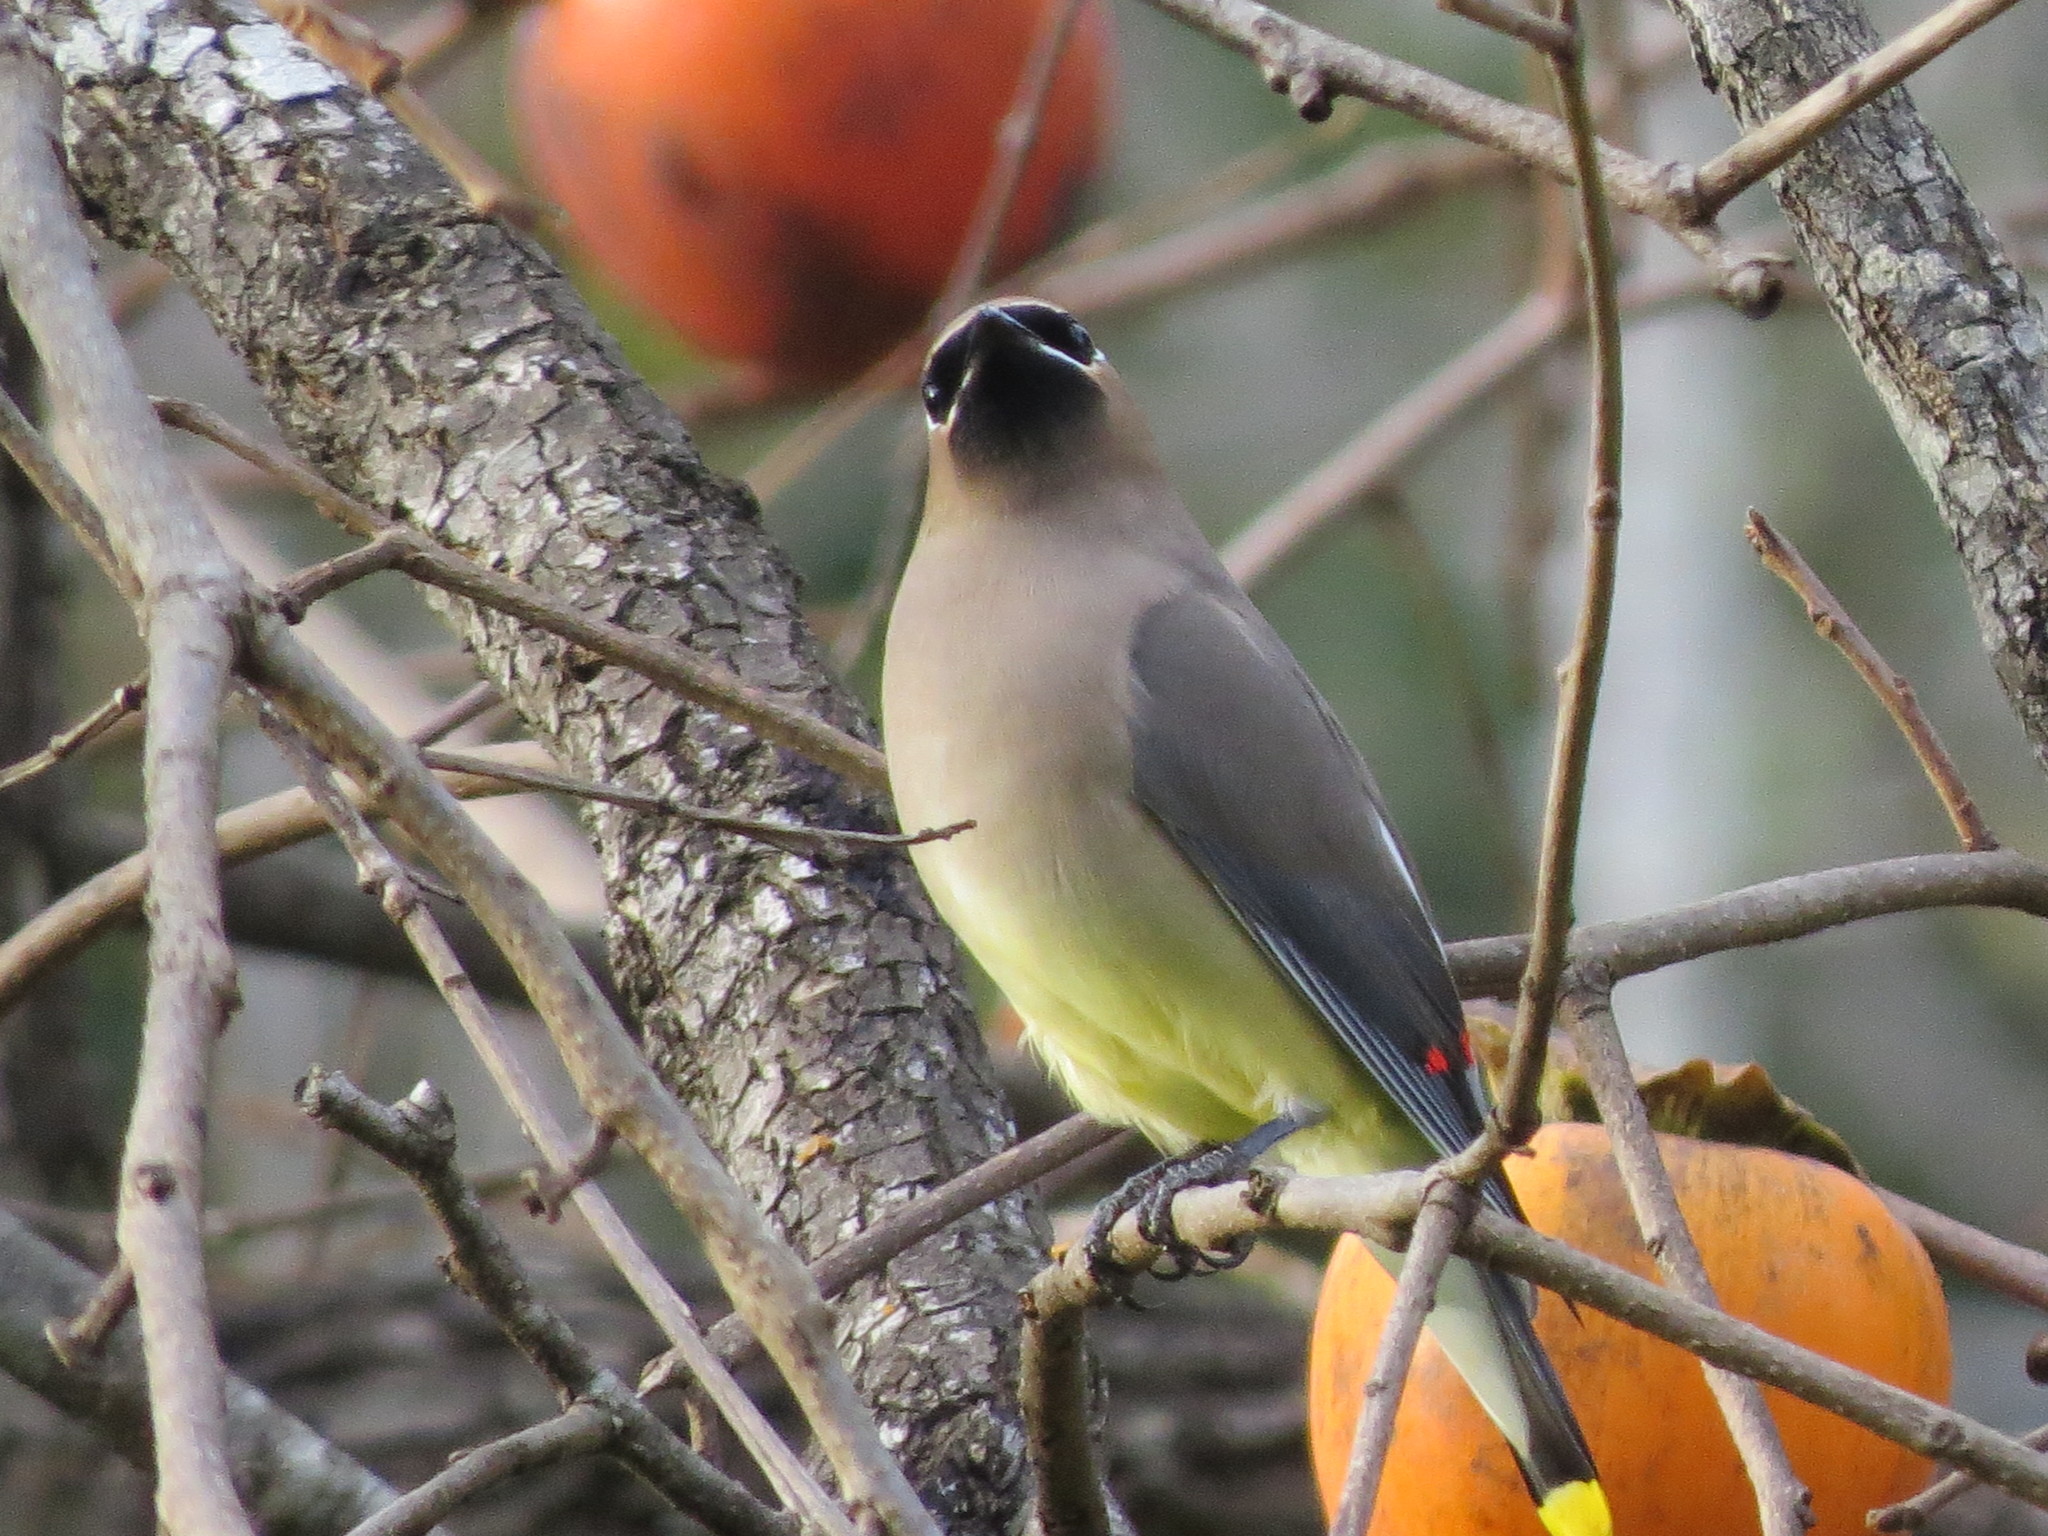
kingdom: Animalia
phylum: Chordata
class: Aves
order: Passeriformes
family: Bombycillidae
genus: Bombycilla
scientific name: Bombycilla cedrorum
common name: Cedar waxwing
